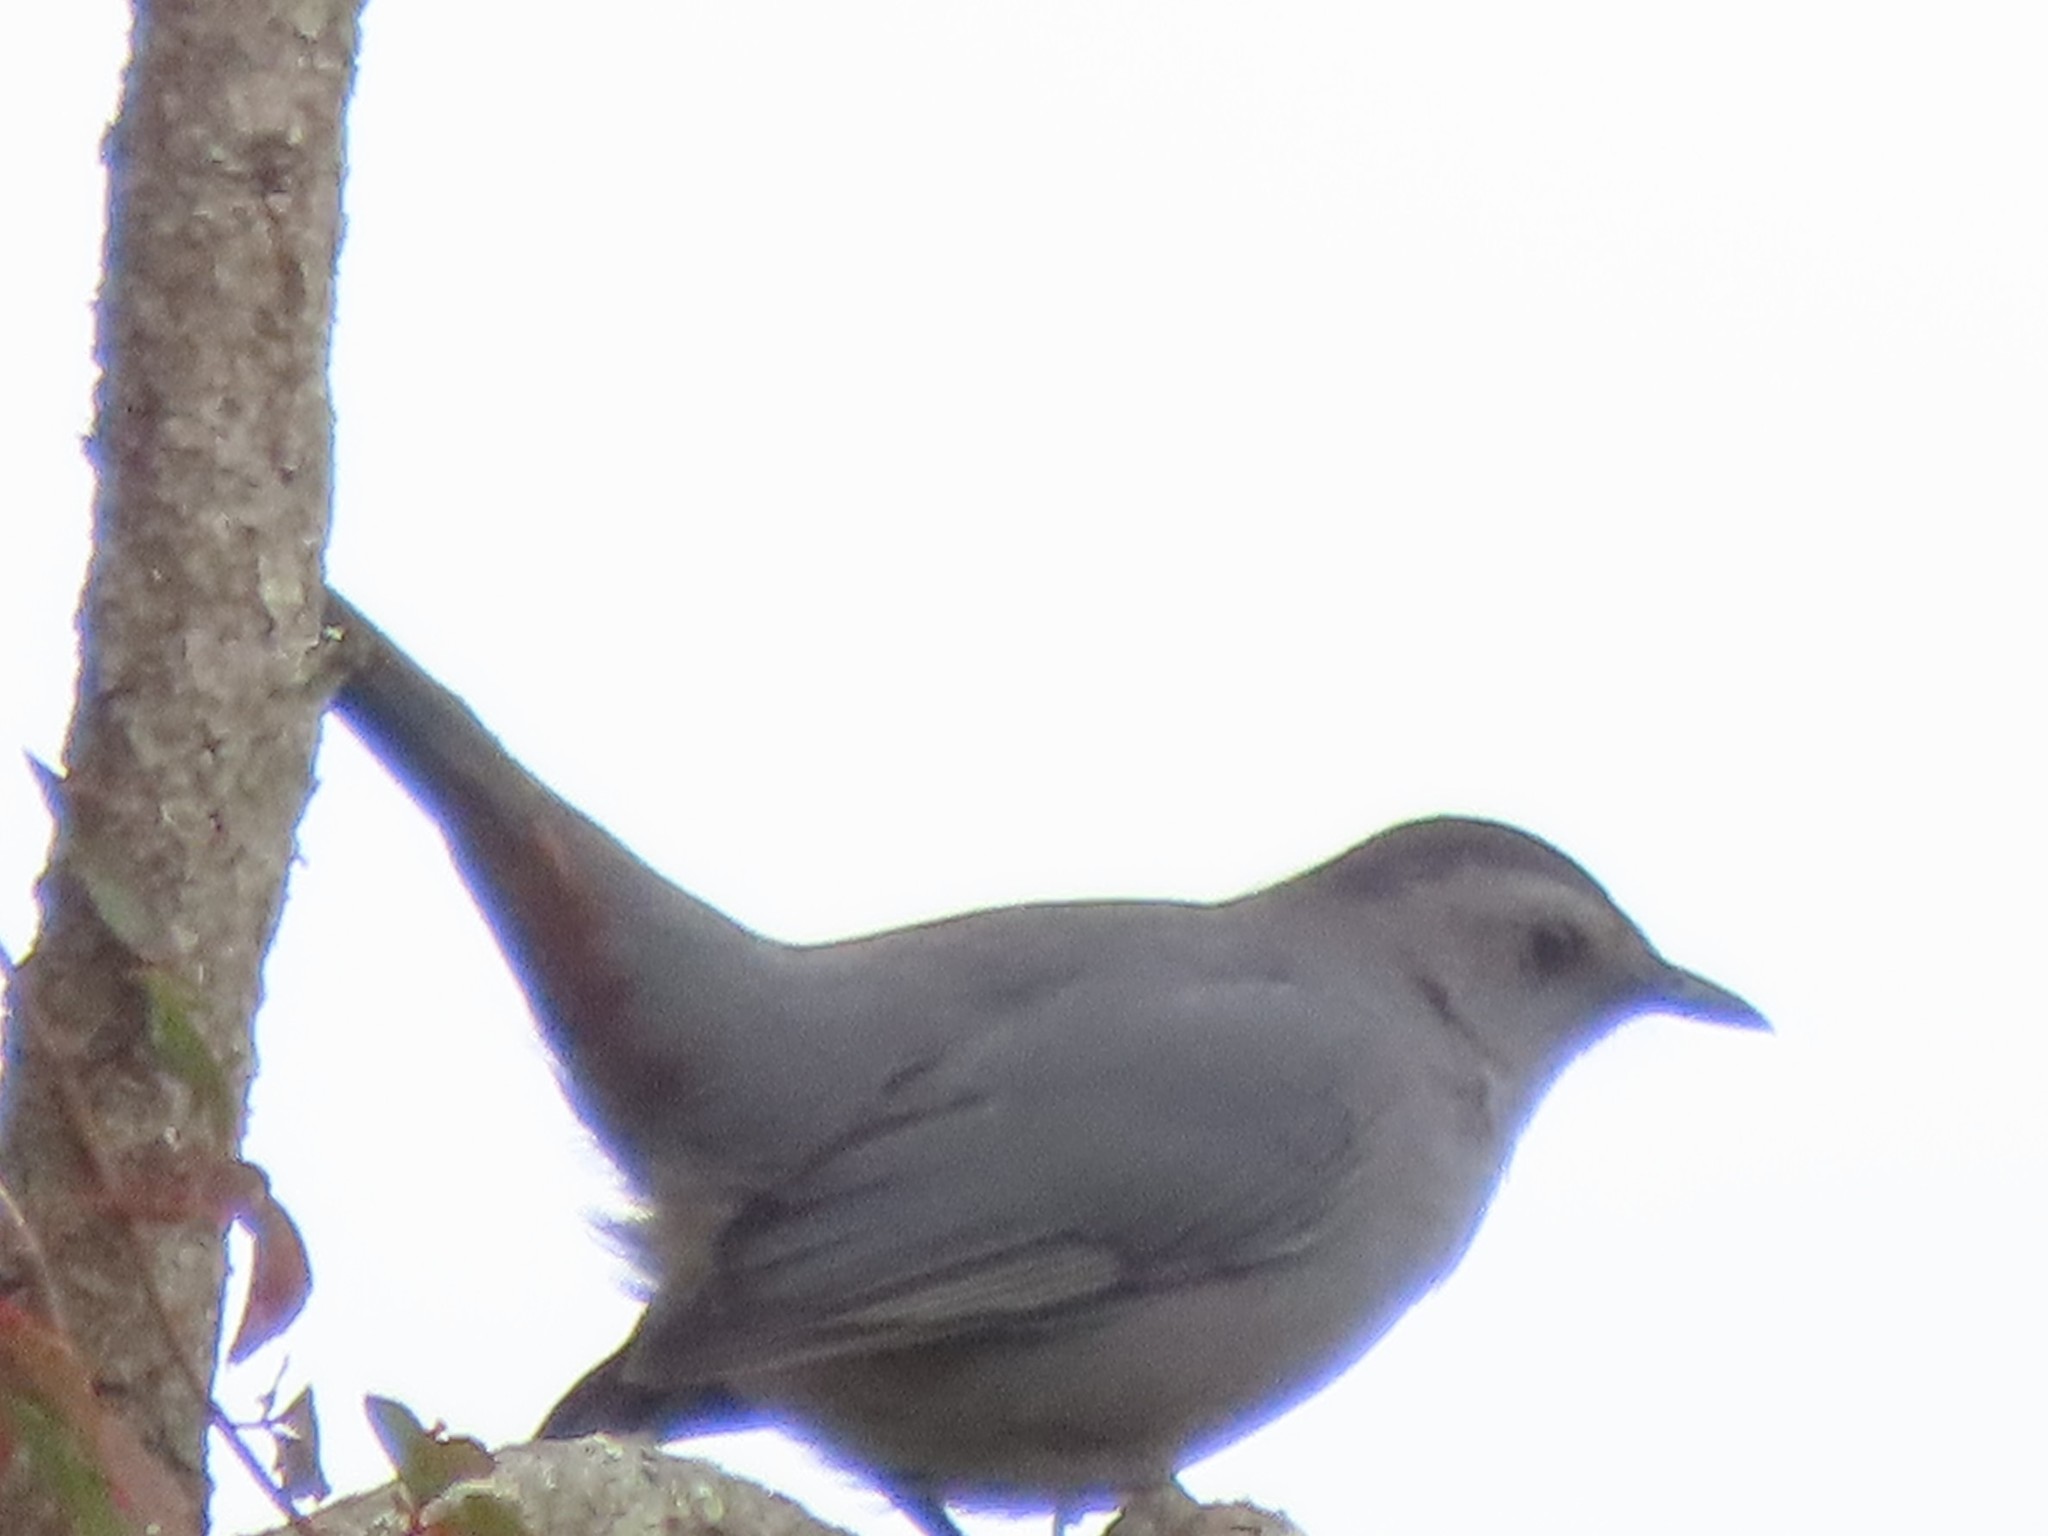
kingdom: Animalia
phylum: Chordata
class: Aves
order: Passeriformes
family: Mimidae
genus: Dumetella
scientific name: Dumetella carolinensis
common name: Gray catbird
